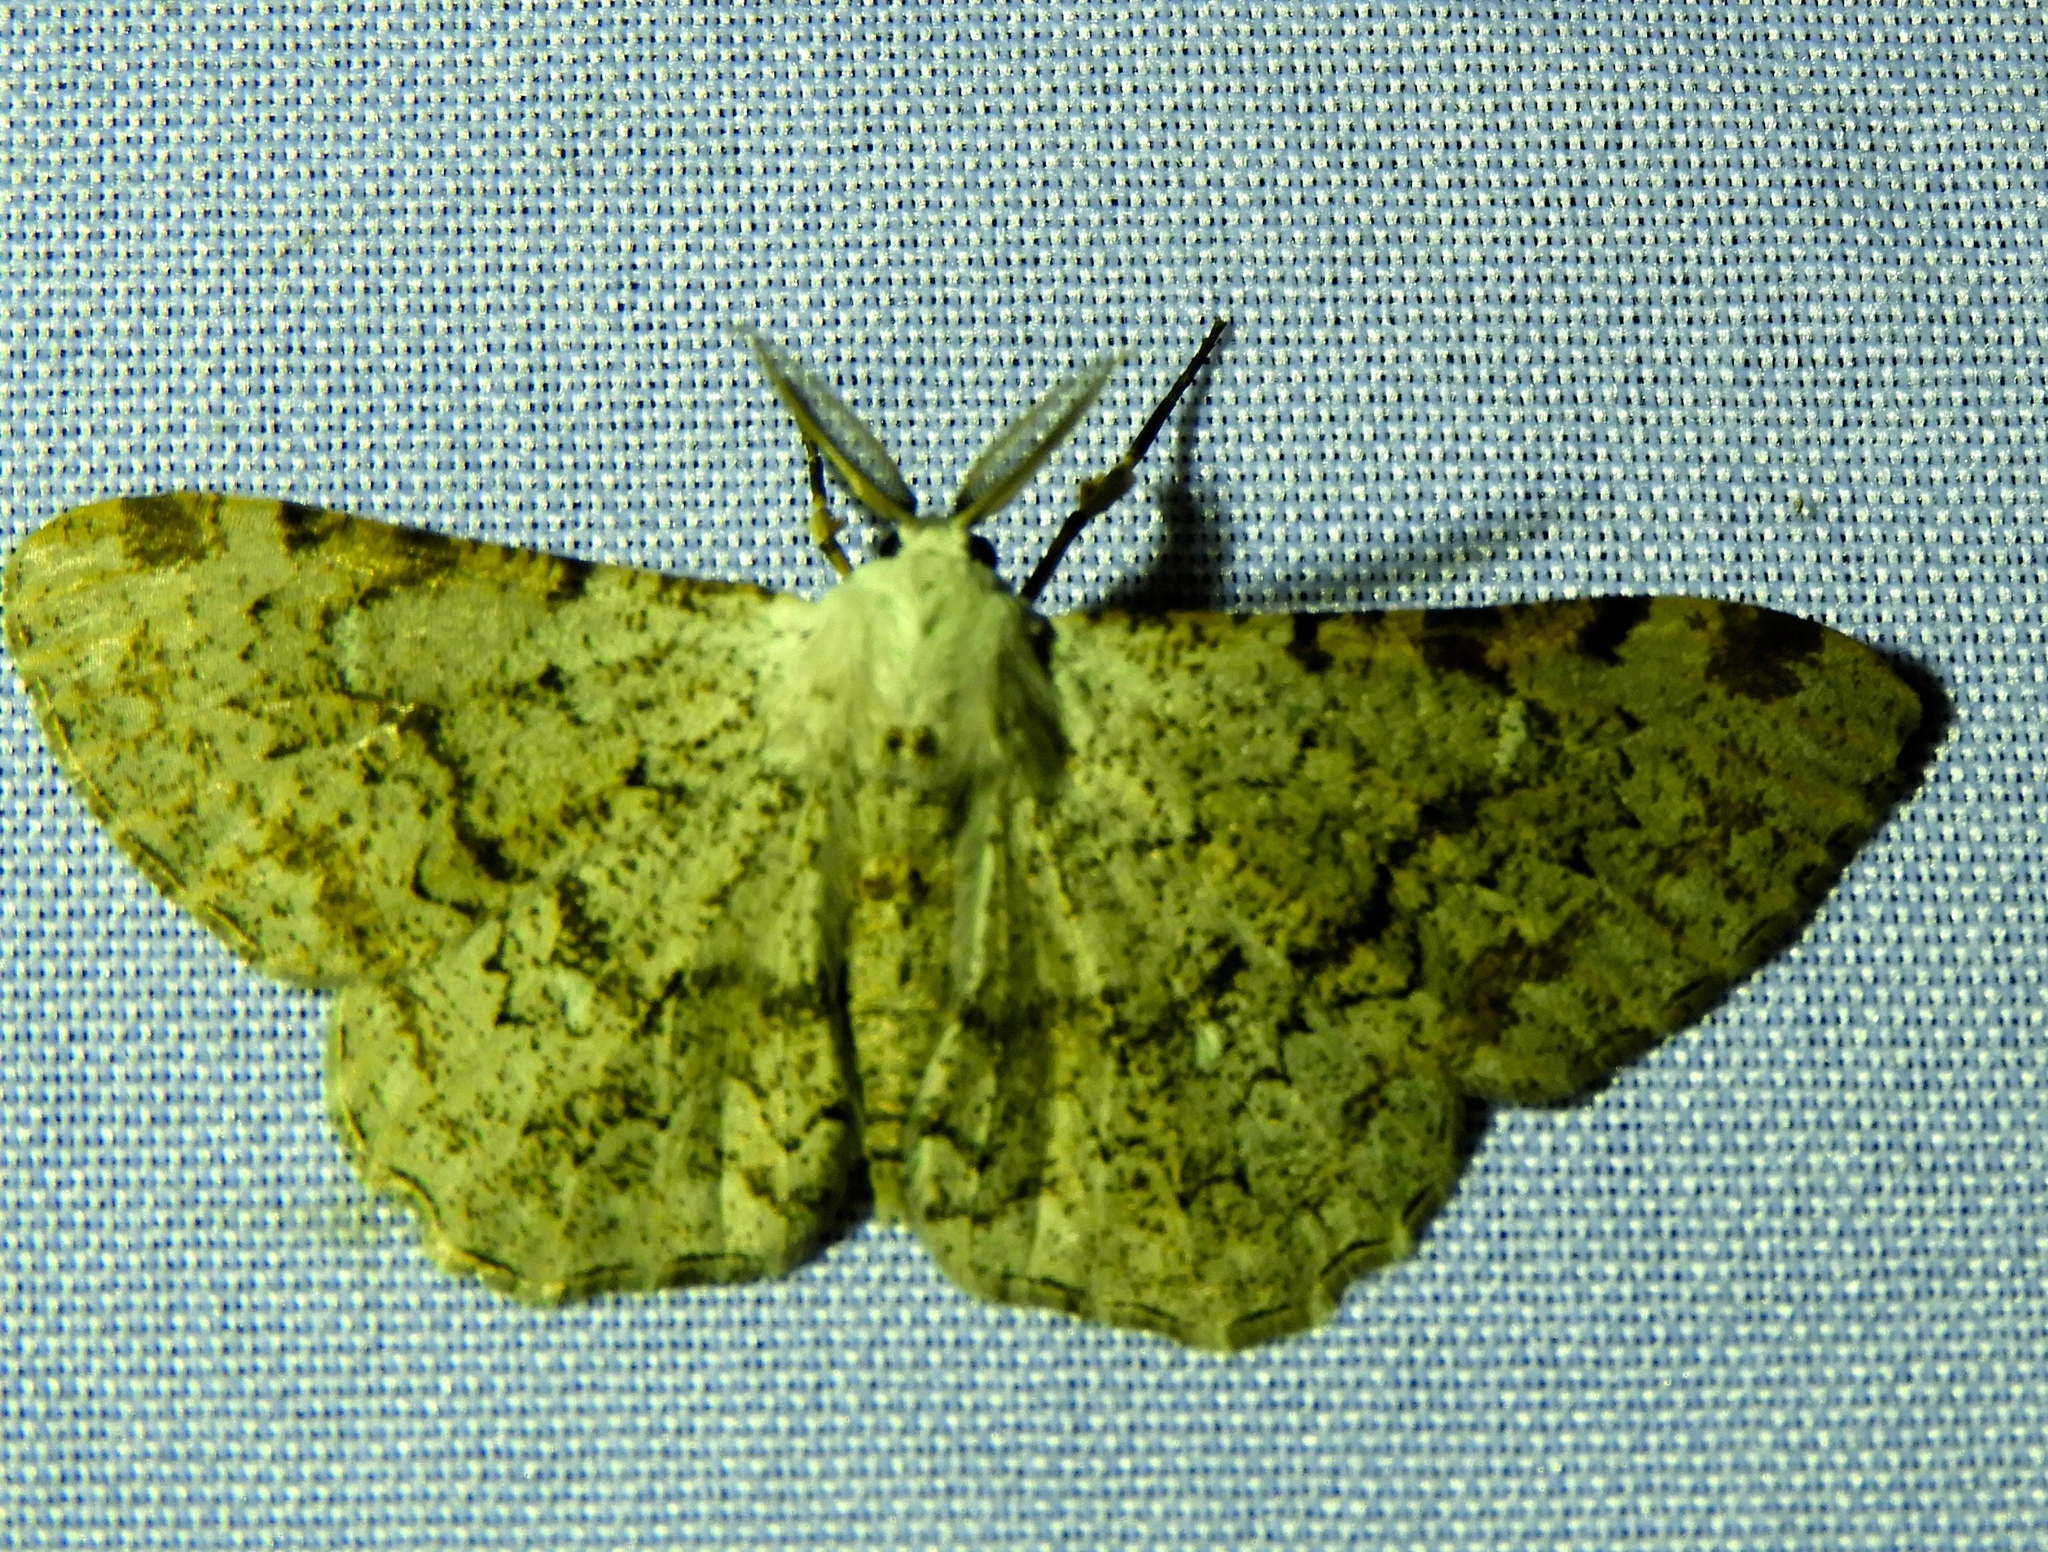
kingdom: Animalia
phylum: Arthropoda
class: Insecta
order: Lepidoptera
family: Geometridae
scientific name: Geometridae
